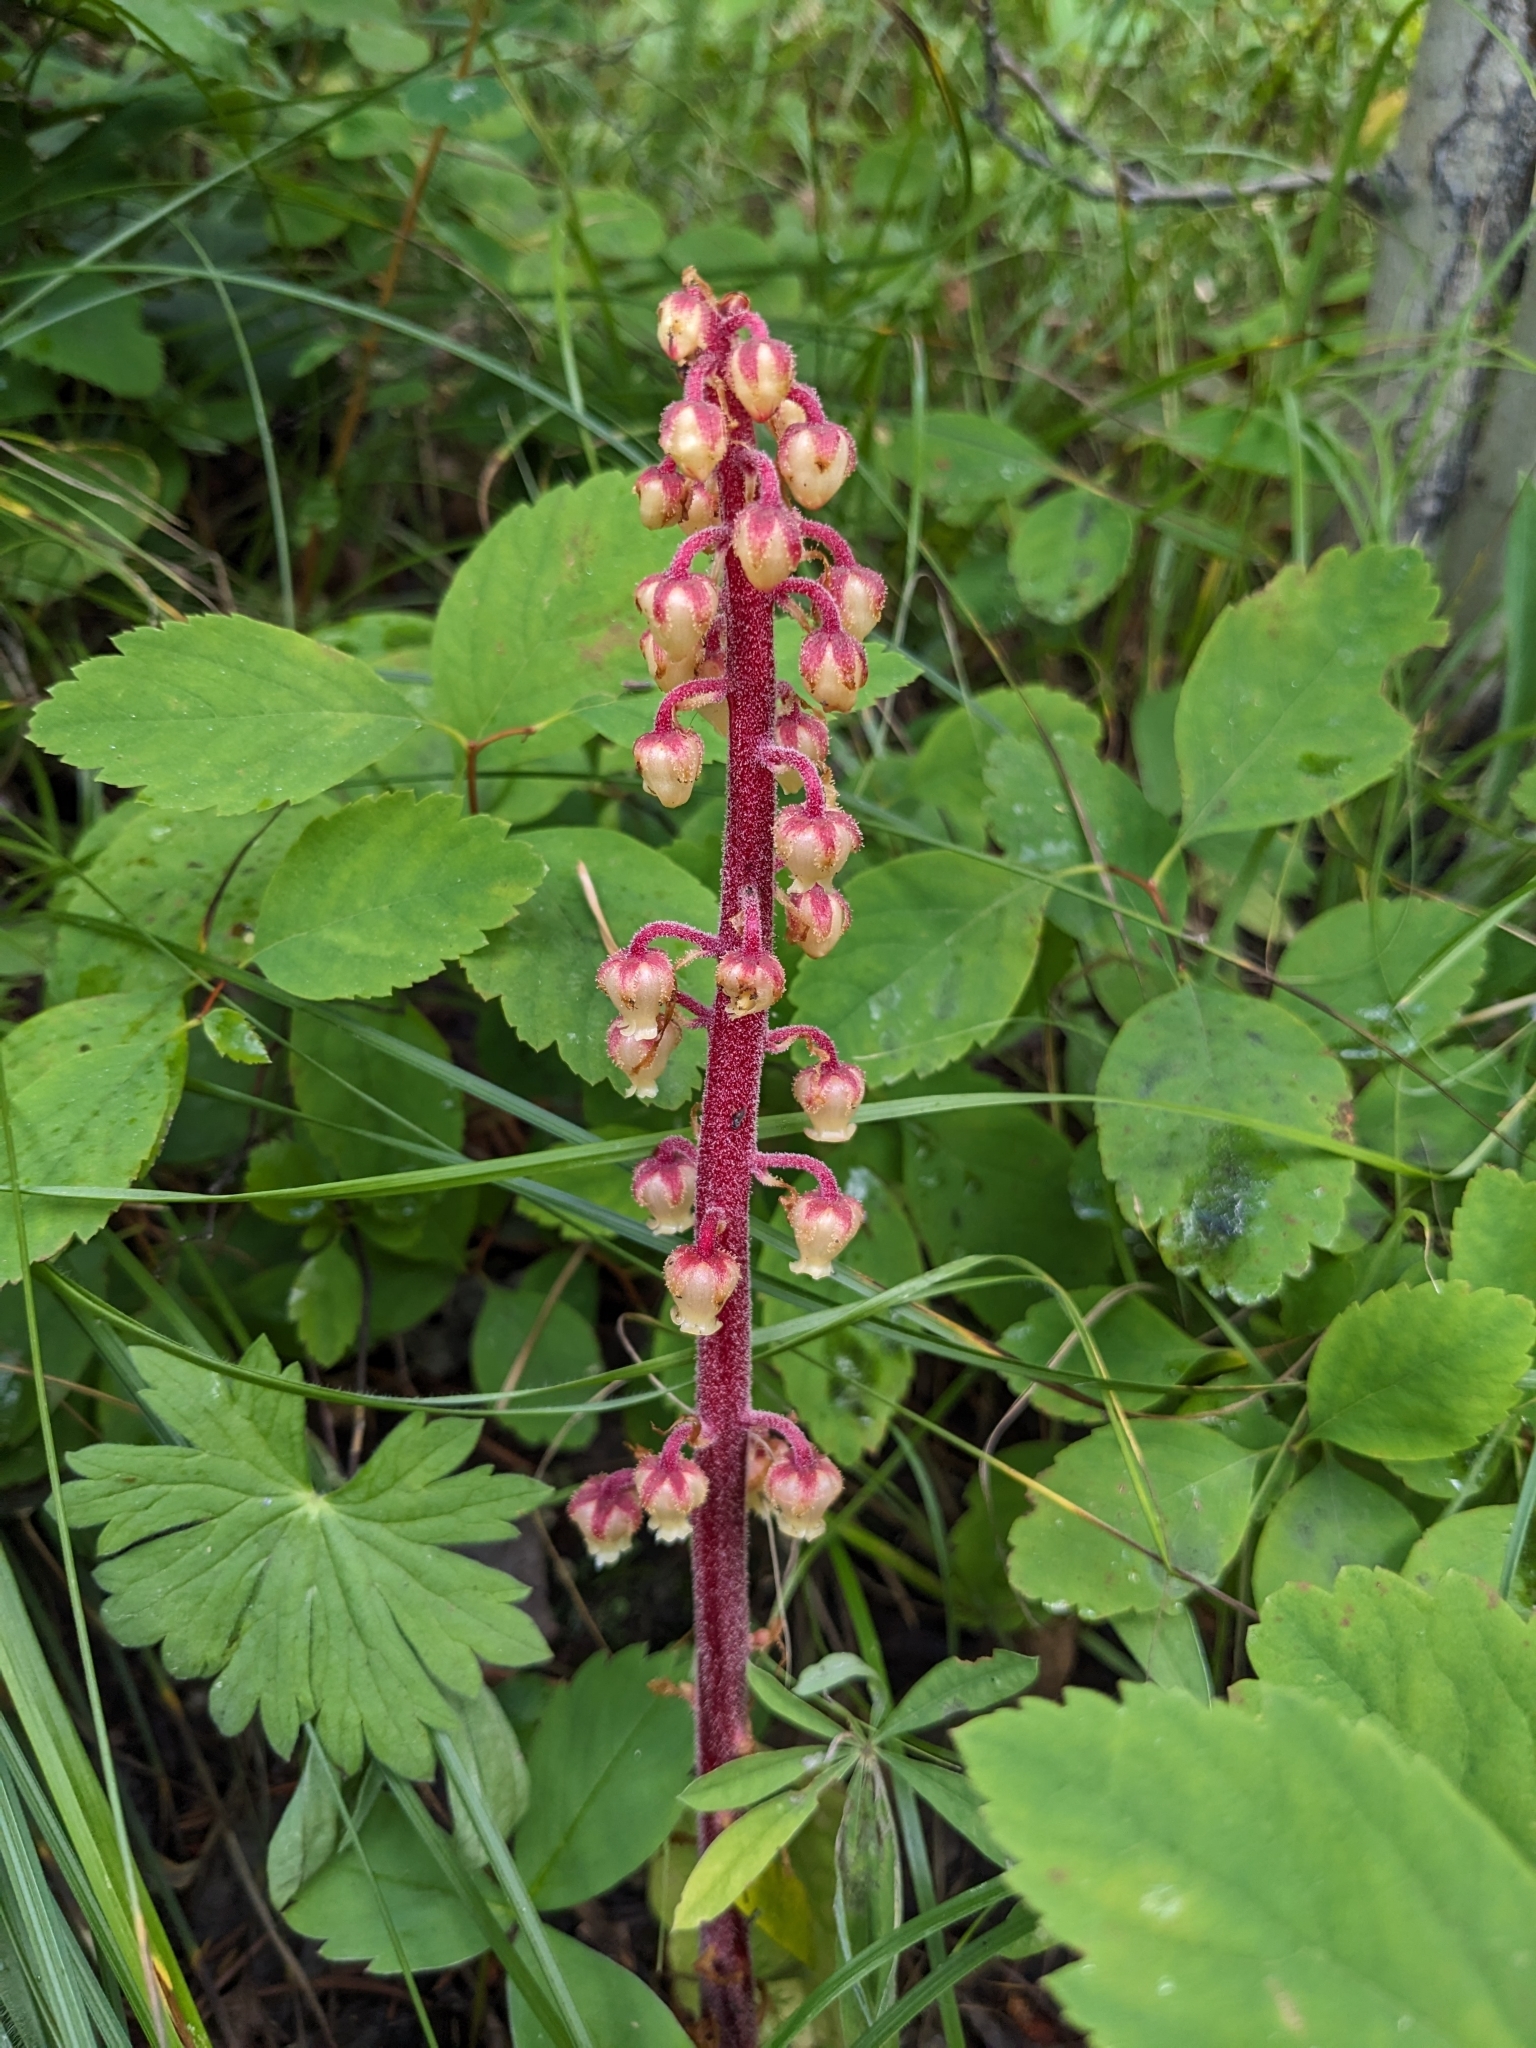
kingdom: Plantae
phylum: Tracheophyta
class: Magnoliopsida
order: Ericales
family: Ericaceae
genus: Pterospora
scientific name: Pterospora andromedea
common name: Giant bird's-nest
